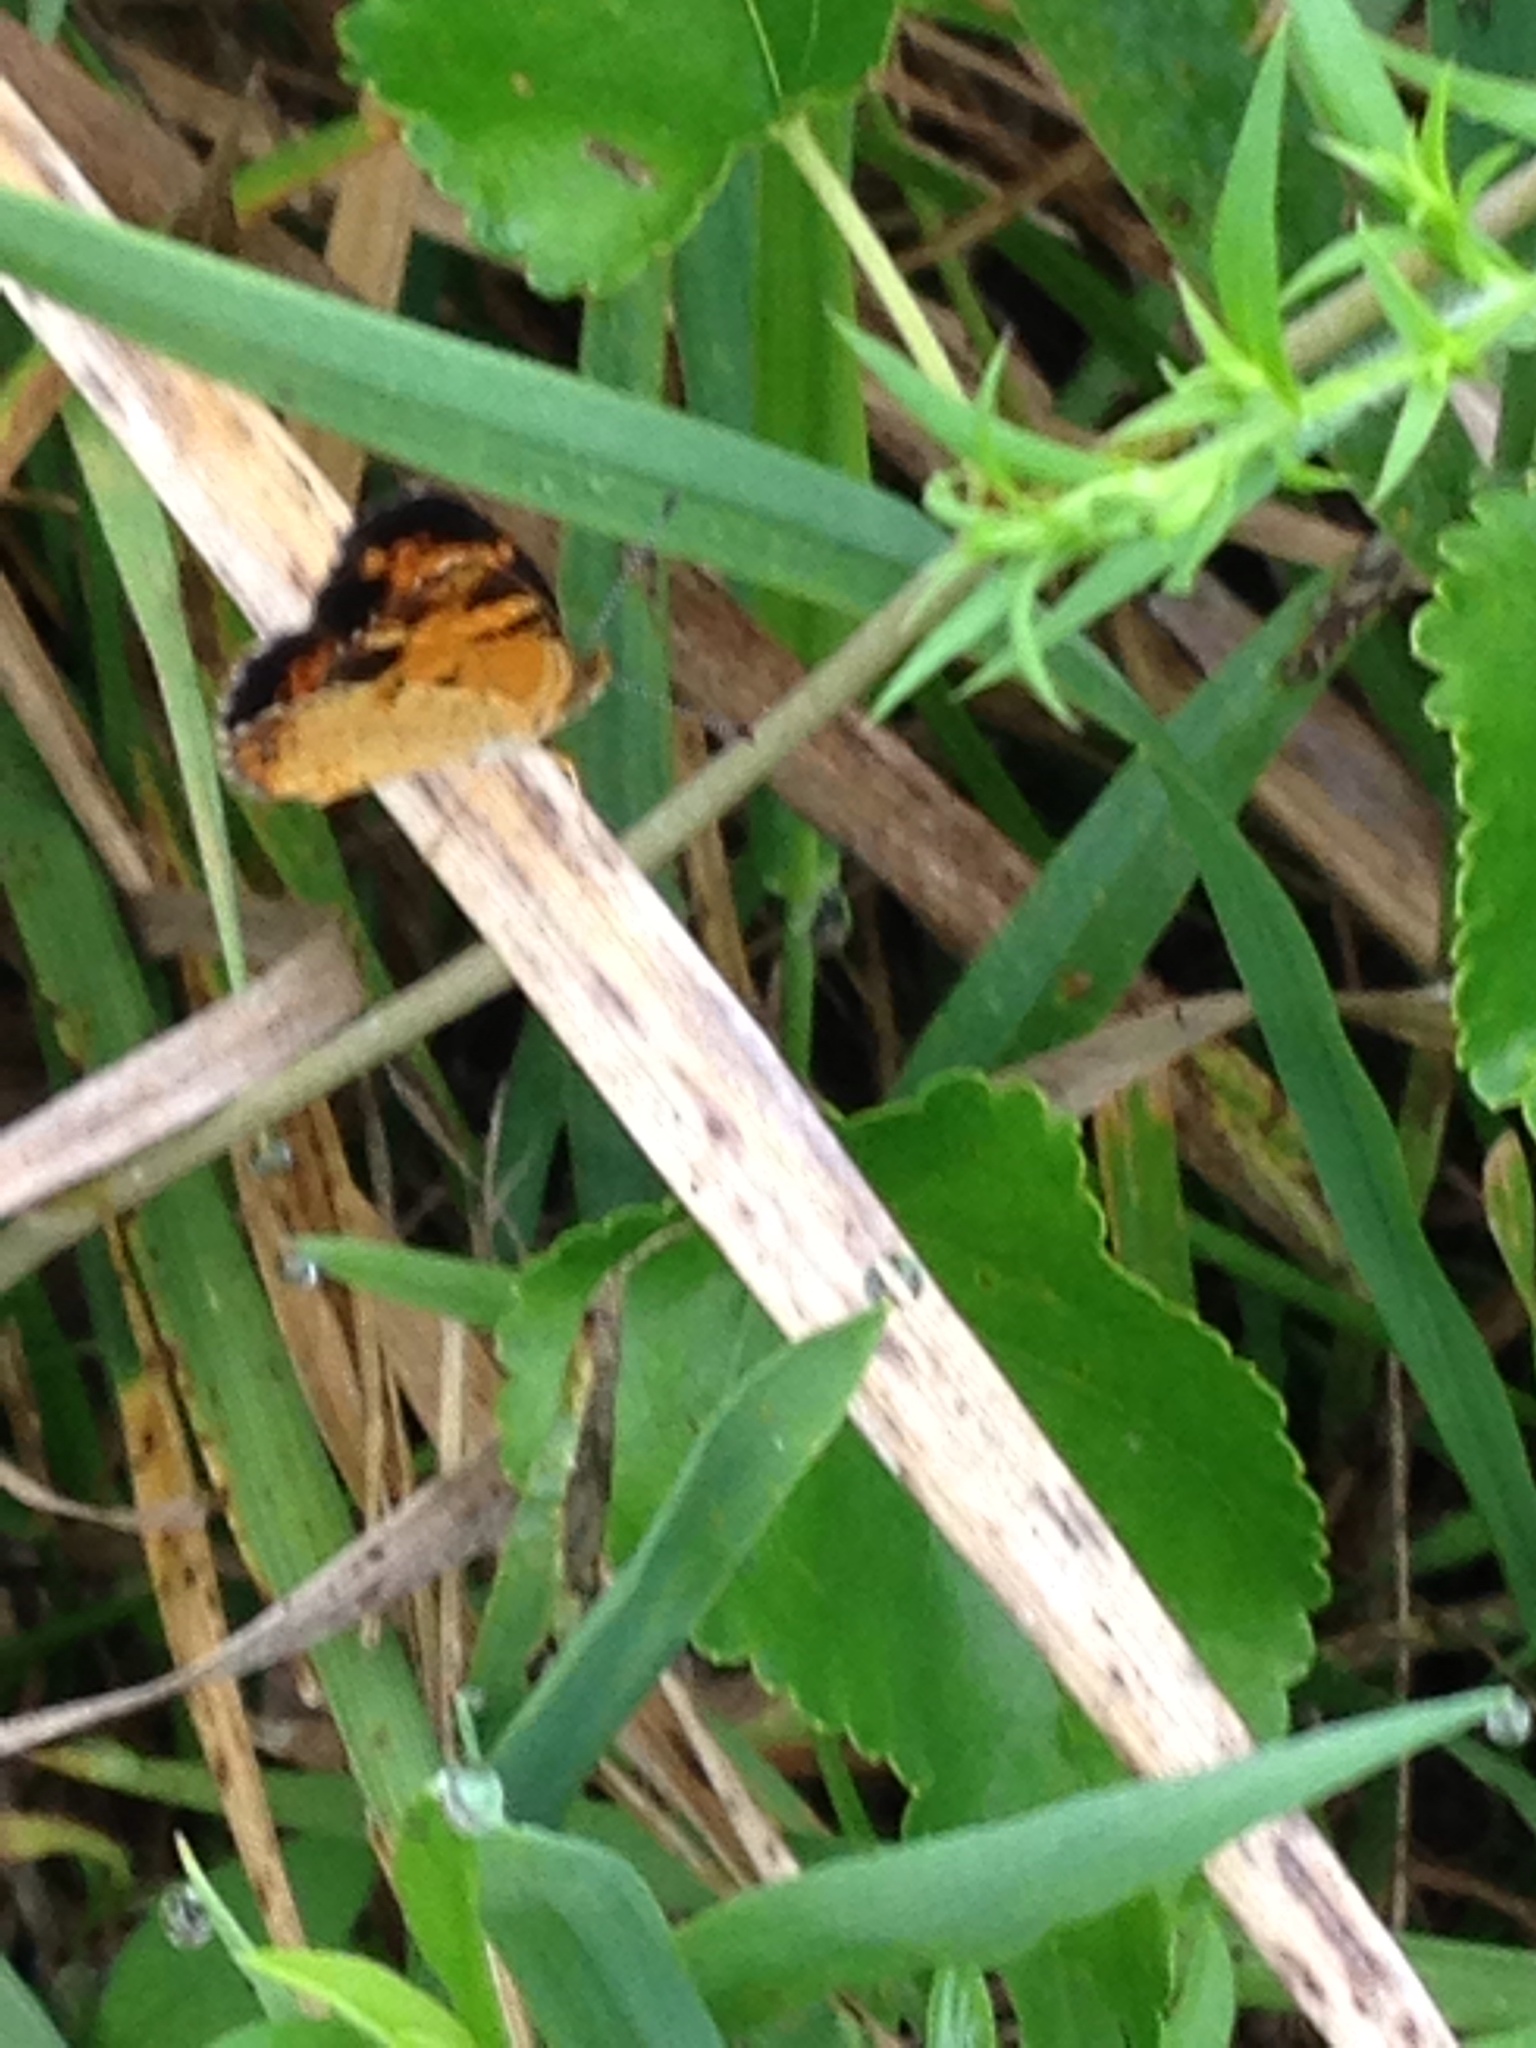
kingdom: Animalia
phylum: Arthropoda
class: Insecta
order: Lepidoptera
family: Nymphalidae
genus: Phyciodes
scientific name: Phyciodes tharos
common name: Pearl crescent
